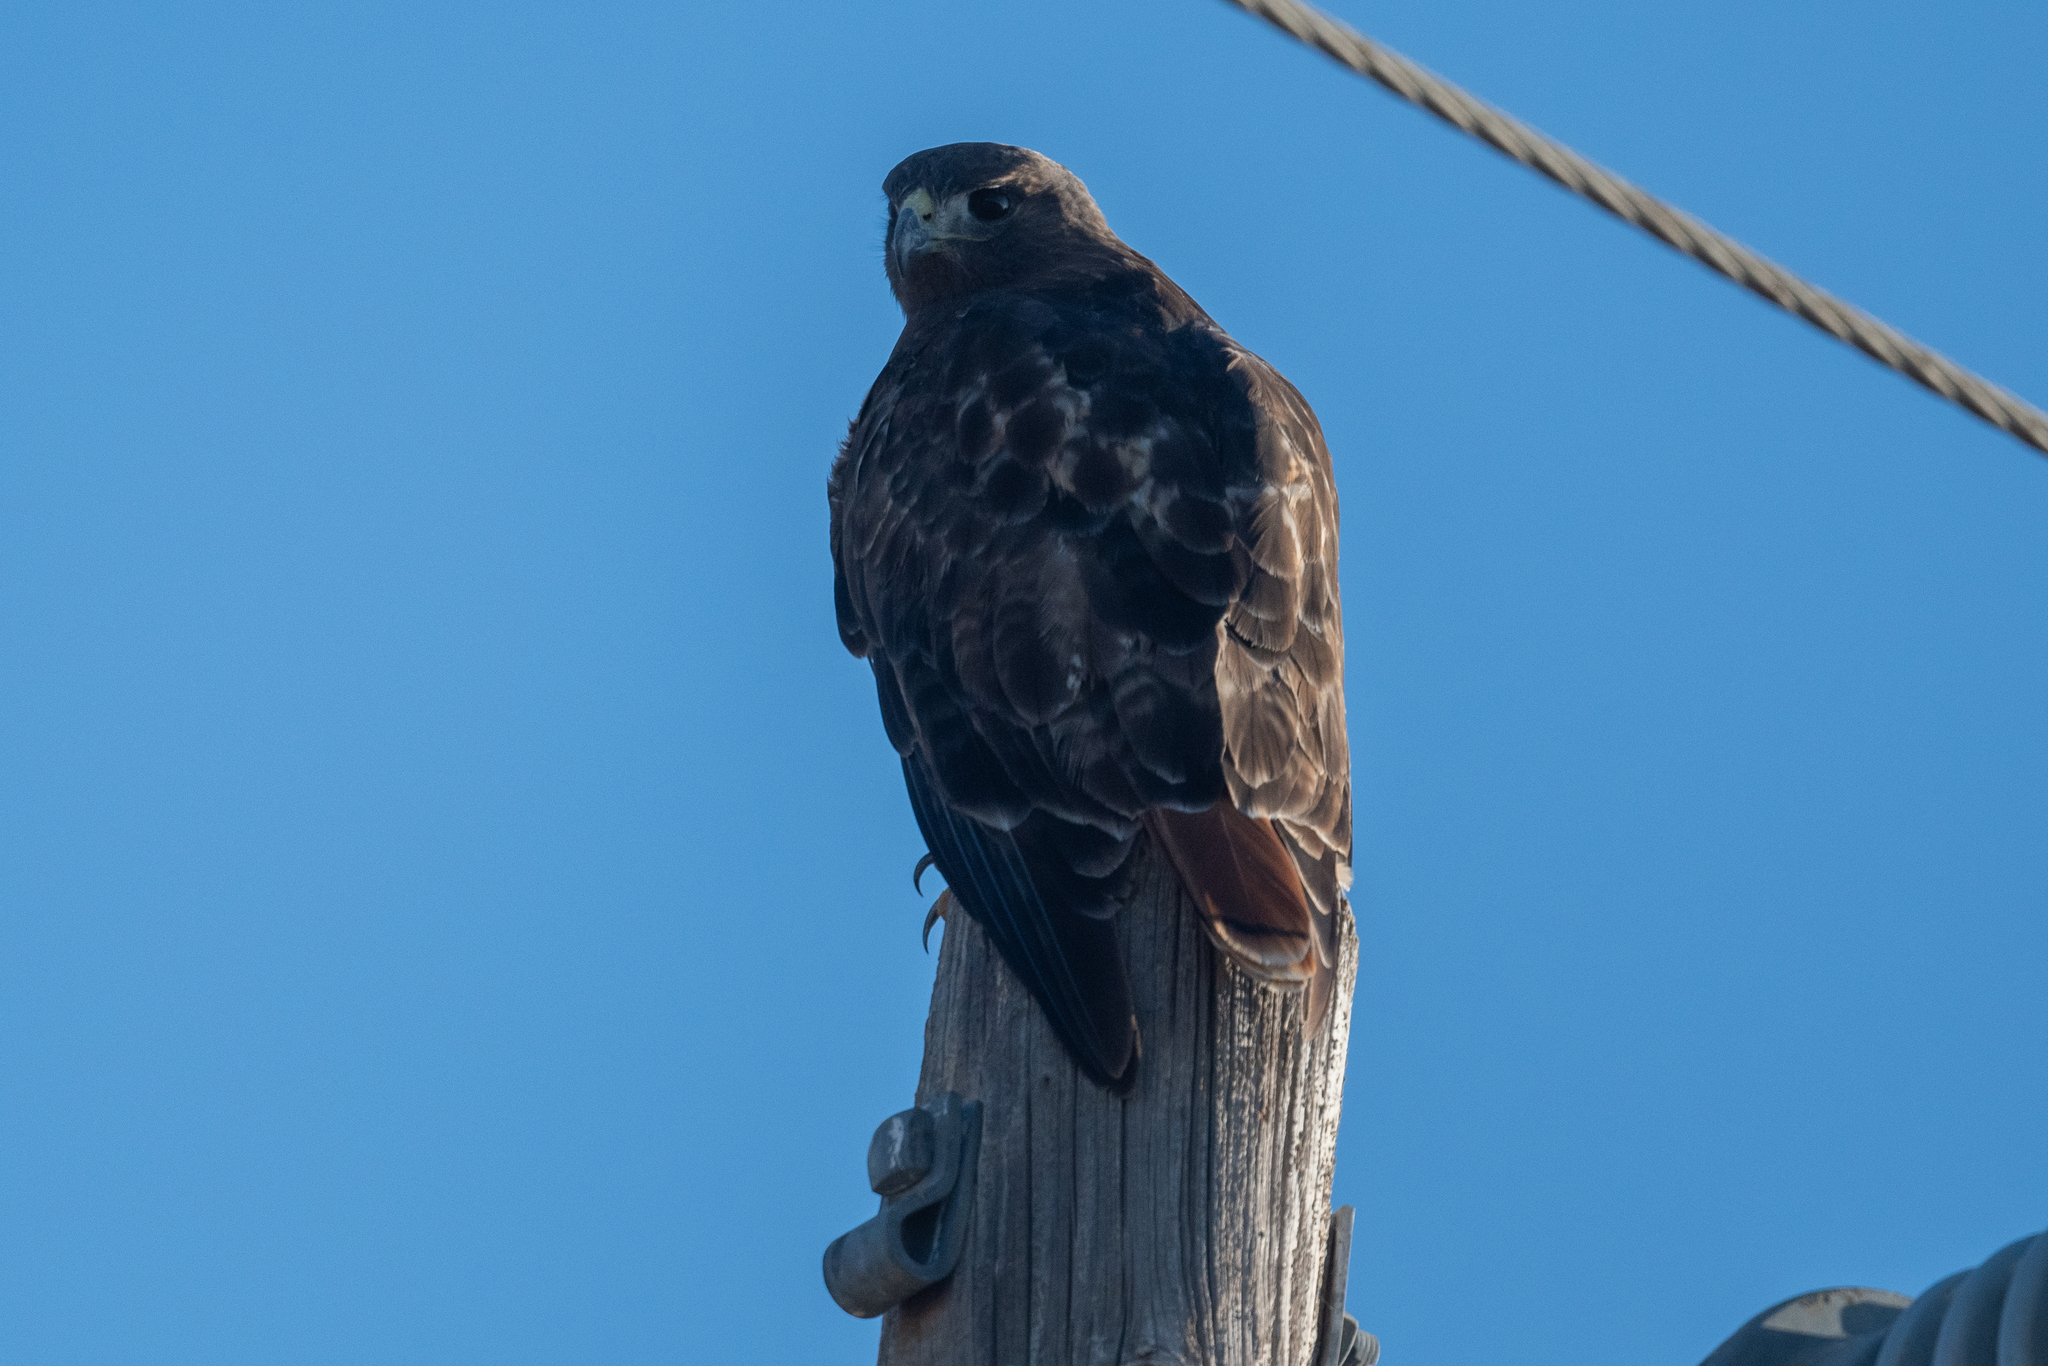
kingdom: Animalia
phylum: Chordata
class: Aves
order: Accipitriformes
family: Accipitridae
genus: Buteo
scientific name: Buteo jamaicensis
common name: Red-tailed hawk
